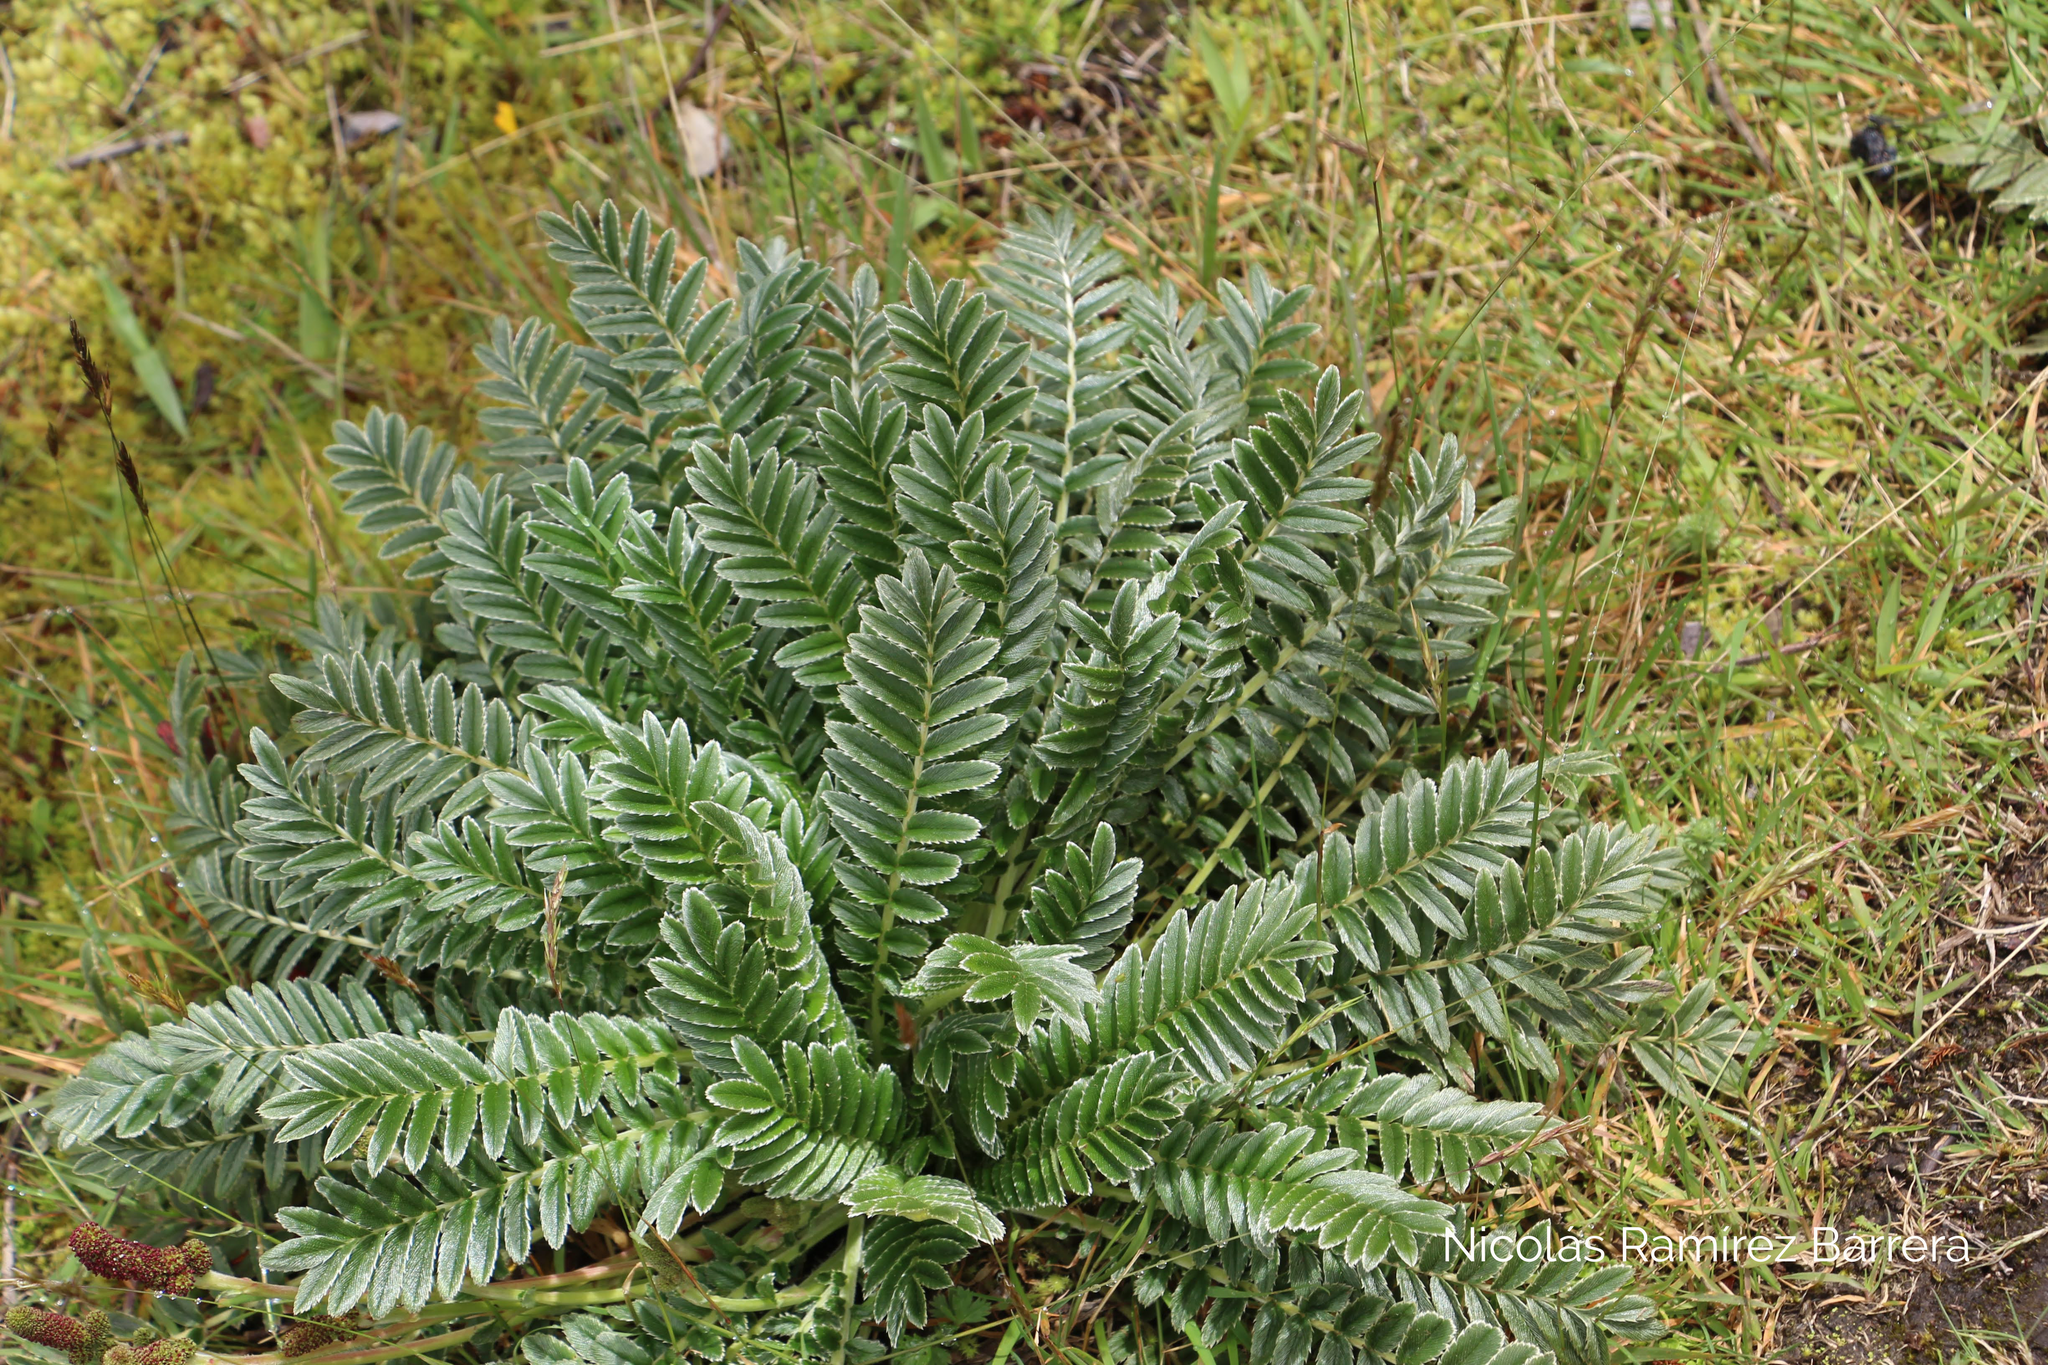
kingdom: Plantae
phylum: Tracheophyta
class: Magnoliopsida
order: Rosales
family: Rosaceae
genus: Acaena
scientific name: Acaena cylindristachya
